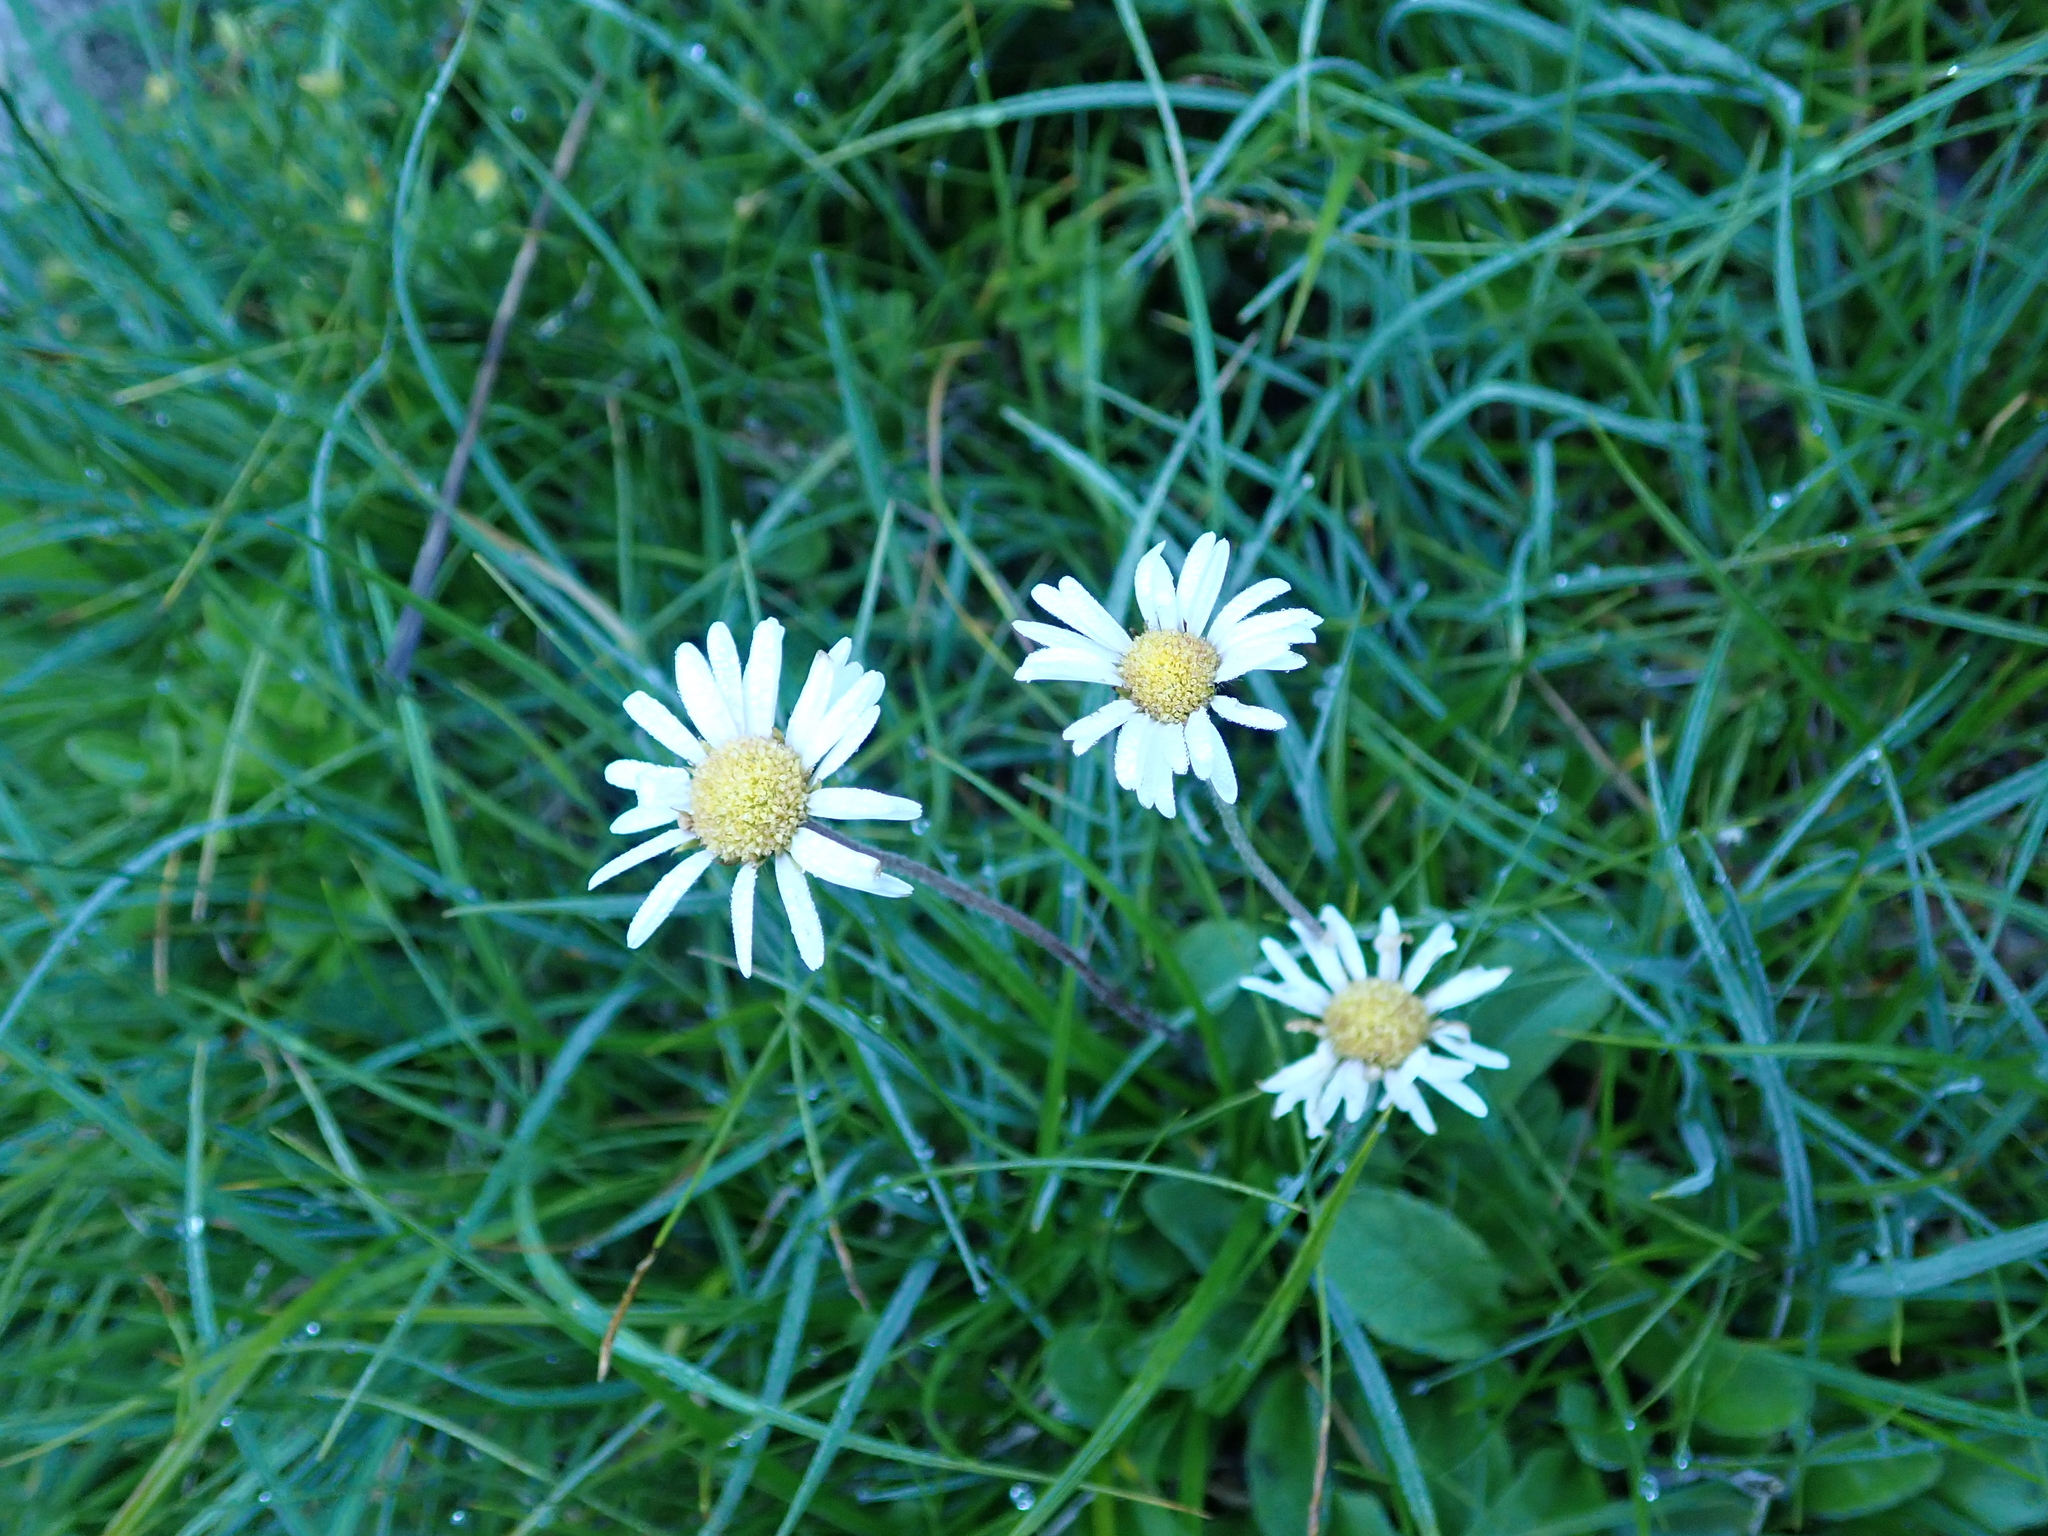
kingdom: Plantae
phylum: Tracheophyta
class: Magnoliopsida
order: Asterales
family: Asteraceae
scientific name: Asteraceae
